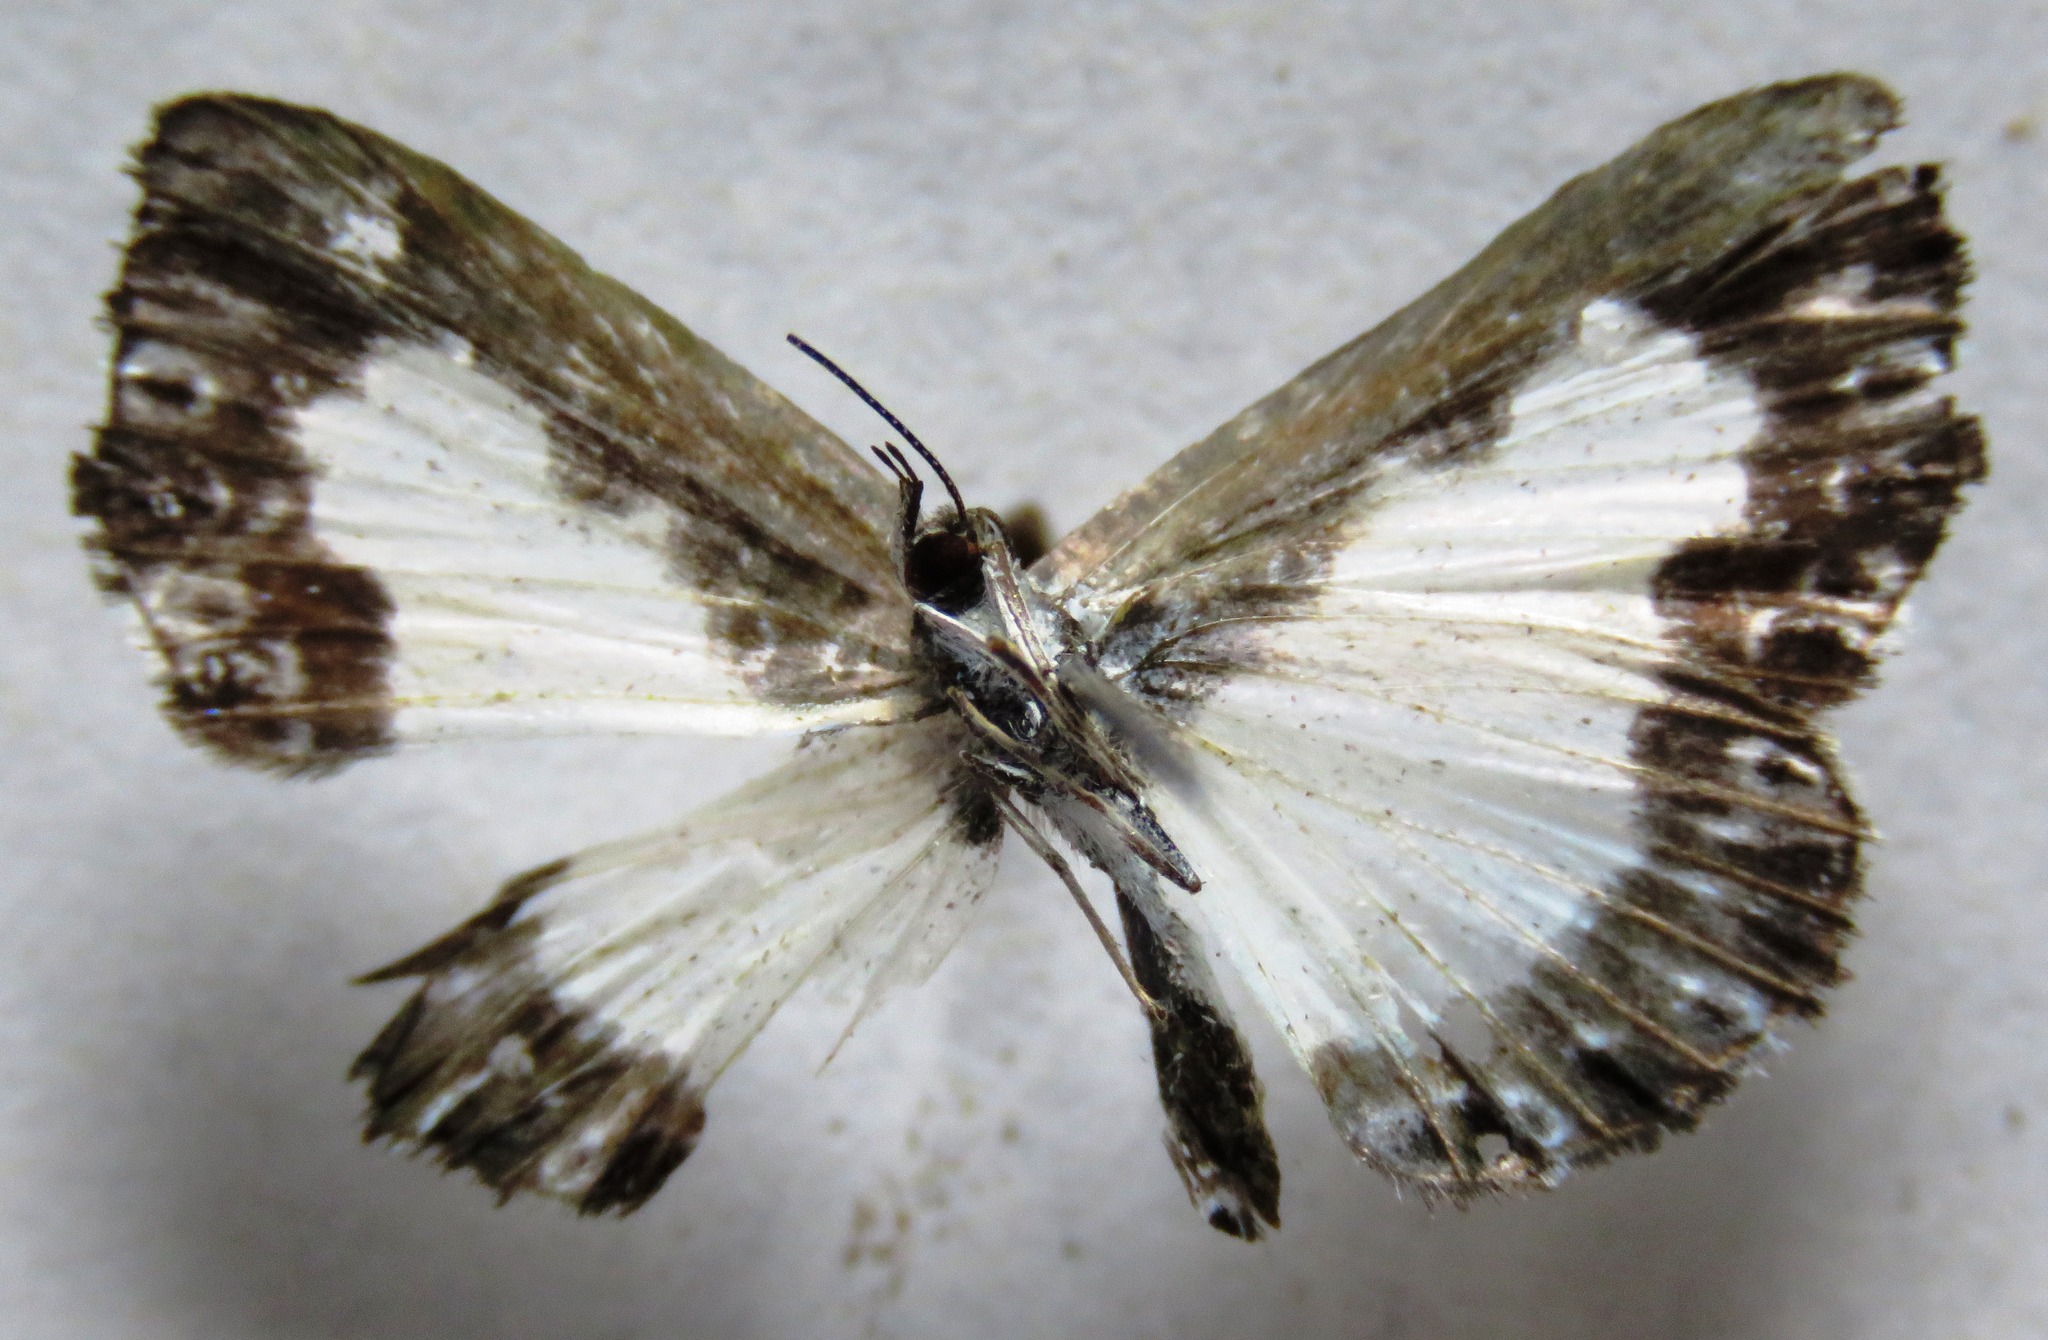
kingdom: Animalia
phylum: Arthropoda
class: Insecta
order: Lepidoptera
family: Riodinidae
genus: Juditha
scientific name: Juditha caucana
